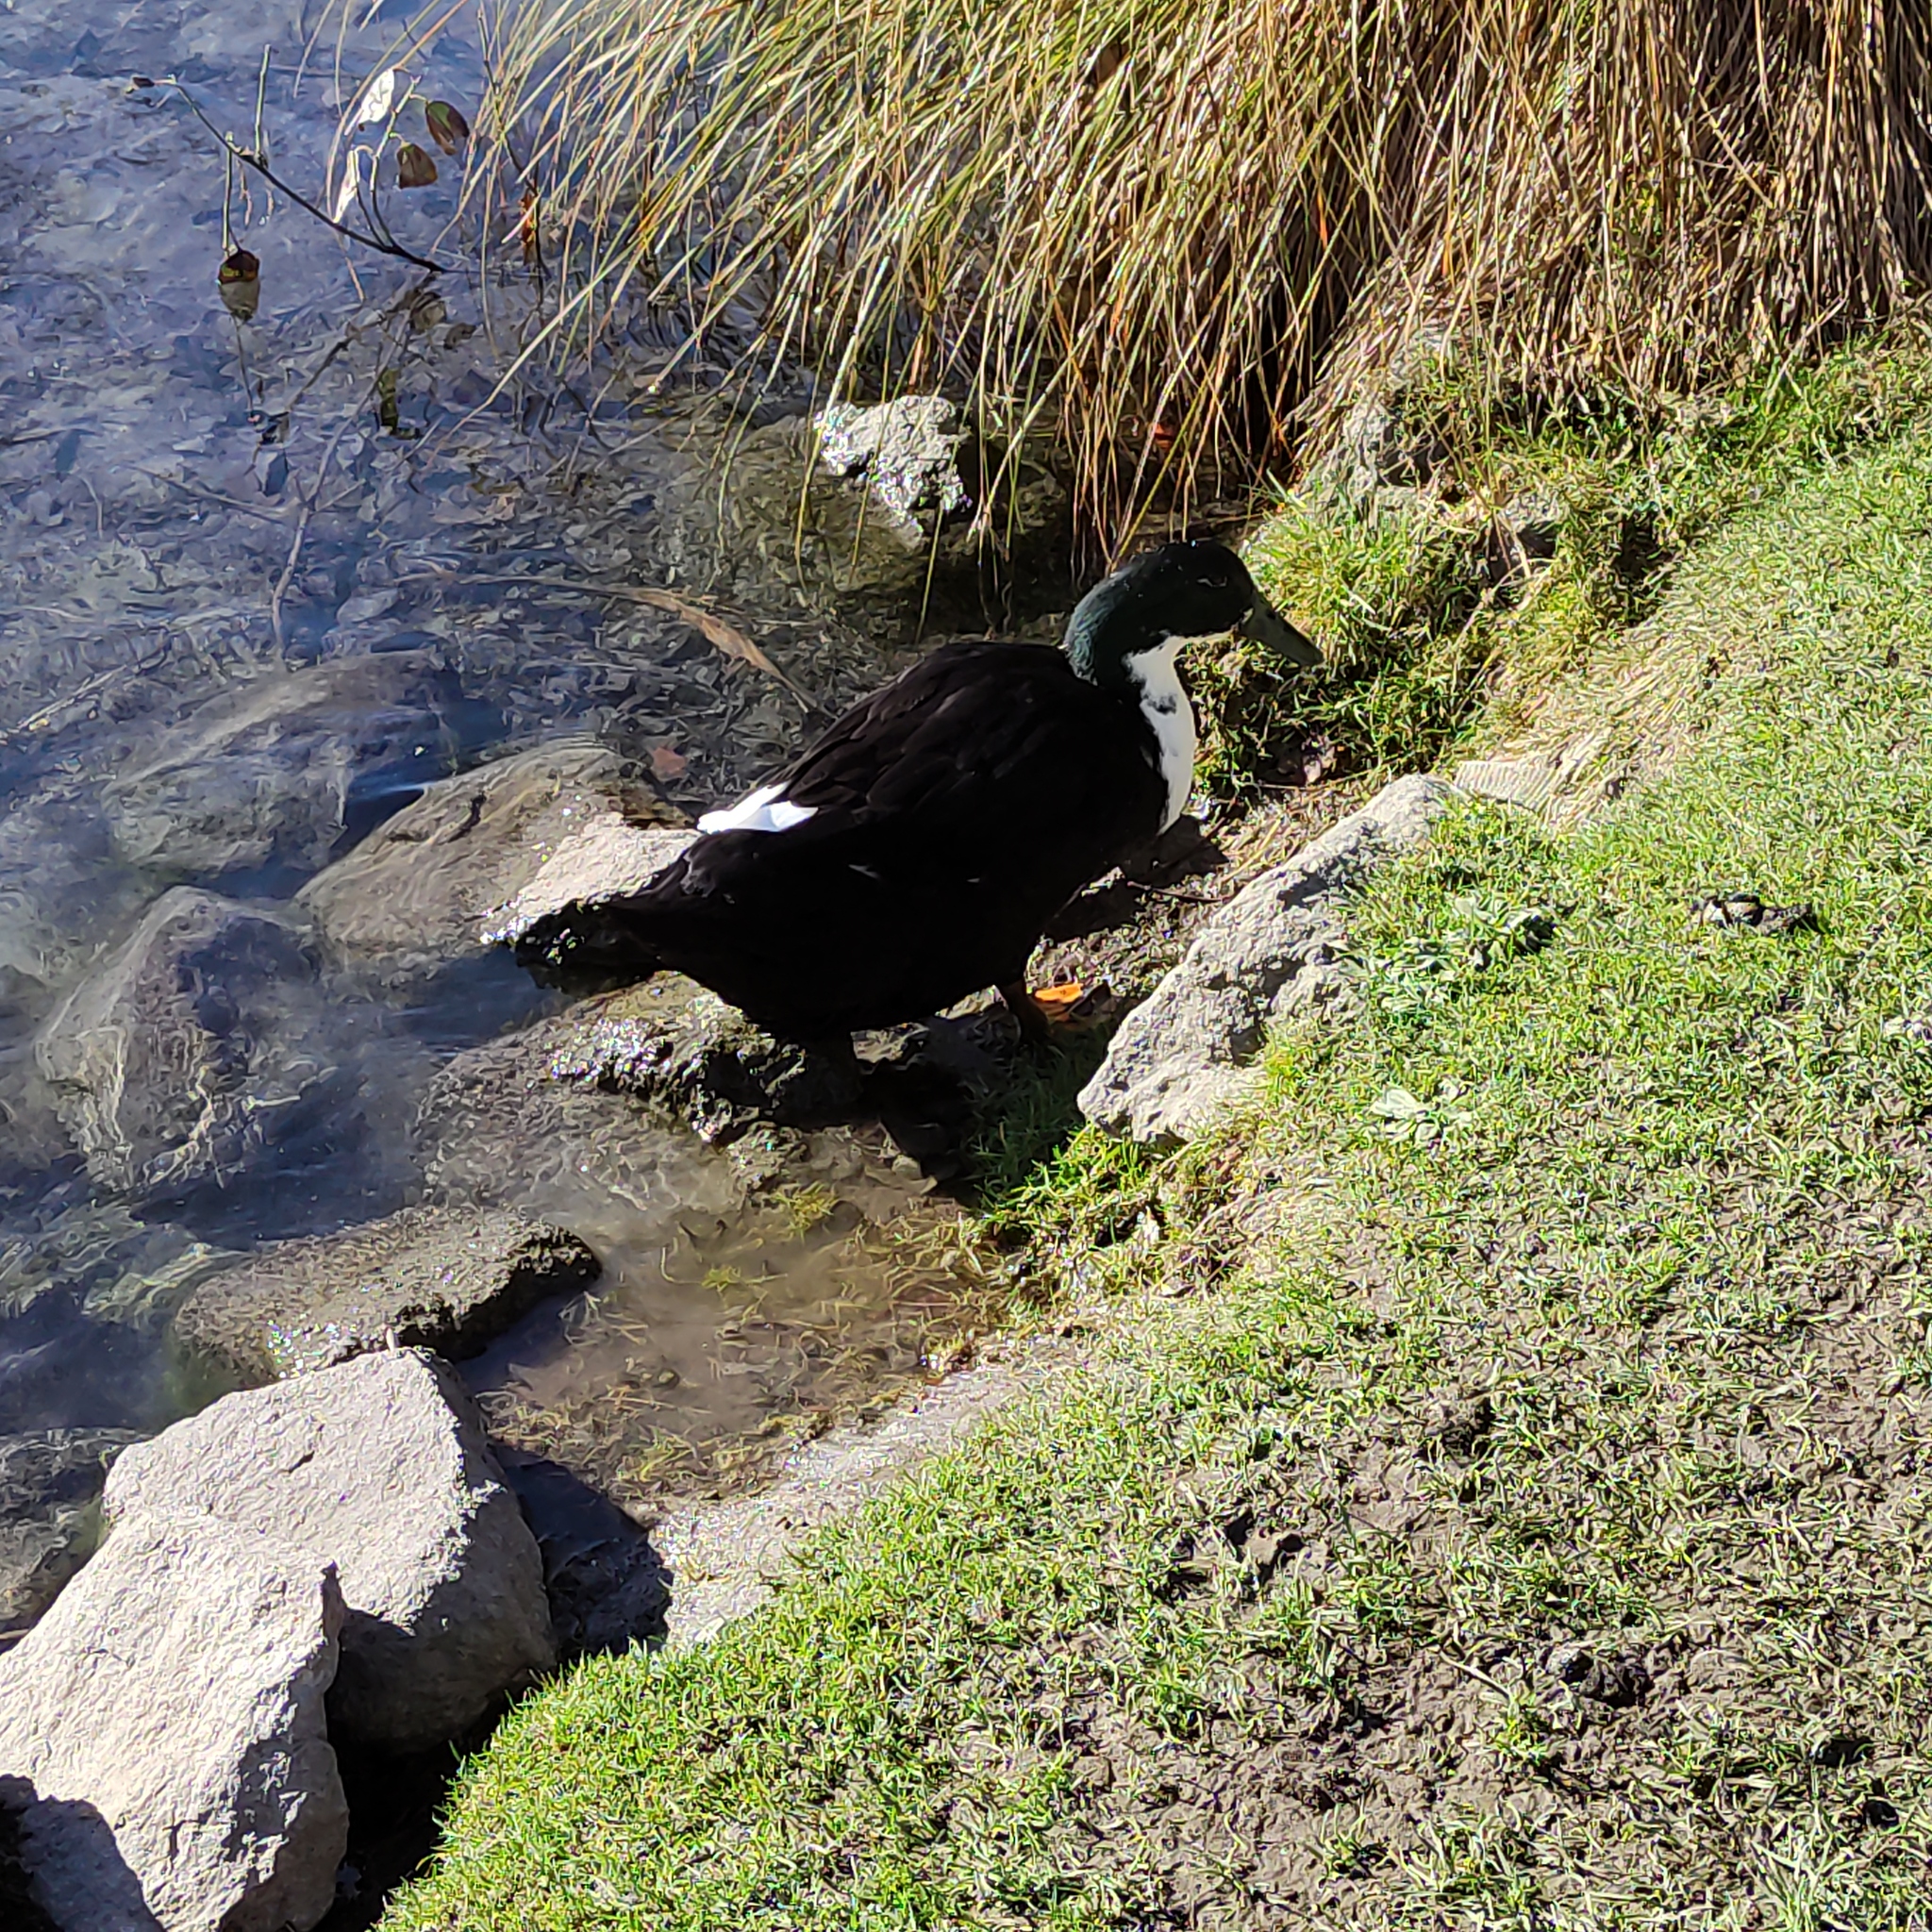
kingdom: Animalia
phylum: Chordata
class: Aves
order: Anseriformes
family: Anatidae
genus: Anas
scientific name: Anas platyrhynchos
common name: Mallard
